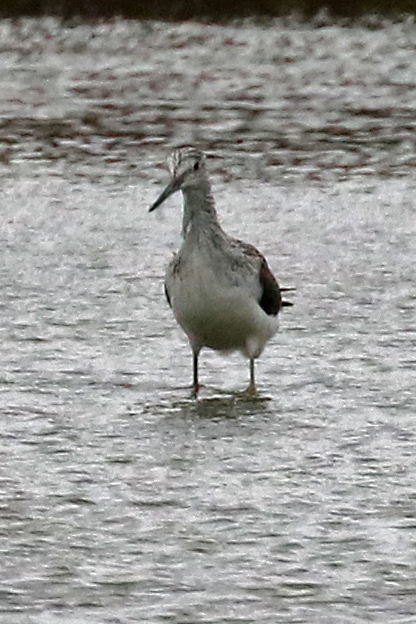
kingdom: Animalia
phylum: Chordata
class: Aves
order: Charadriiformes
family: Scolopacidae
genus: Tringa
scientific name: Tringa nebularia
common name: Common greenshank
